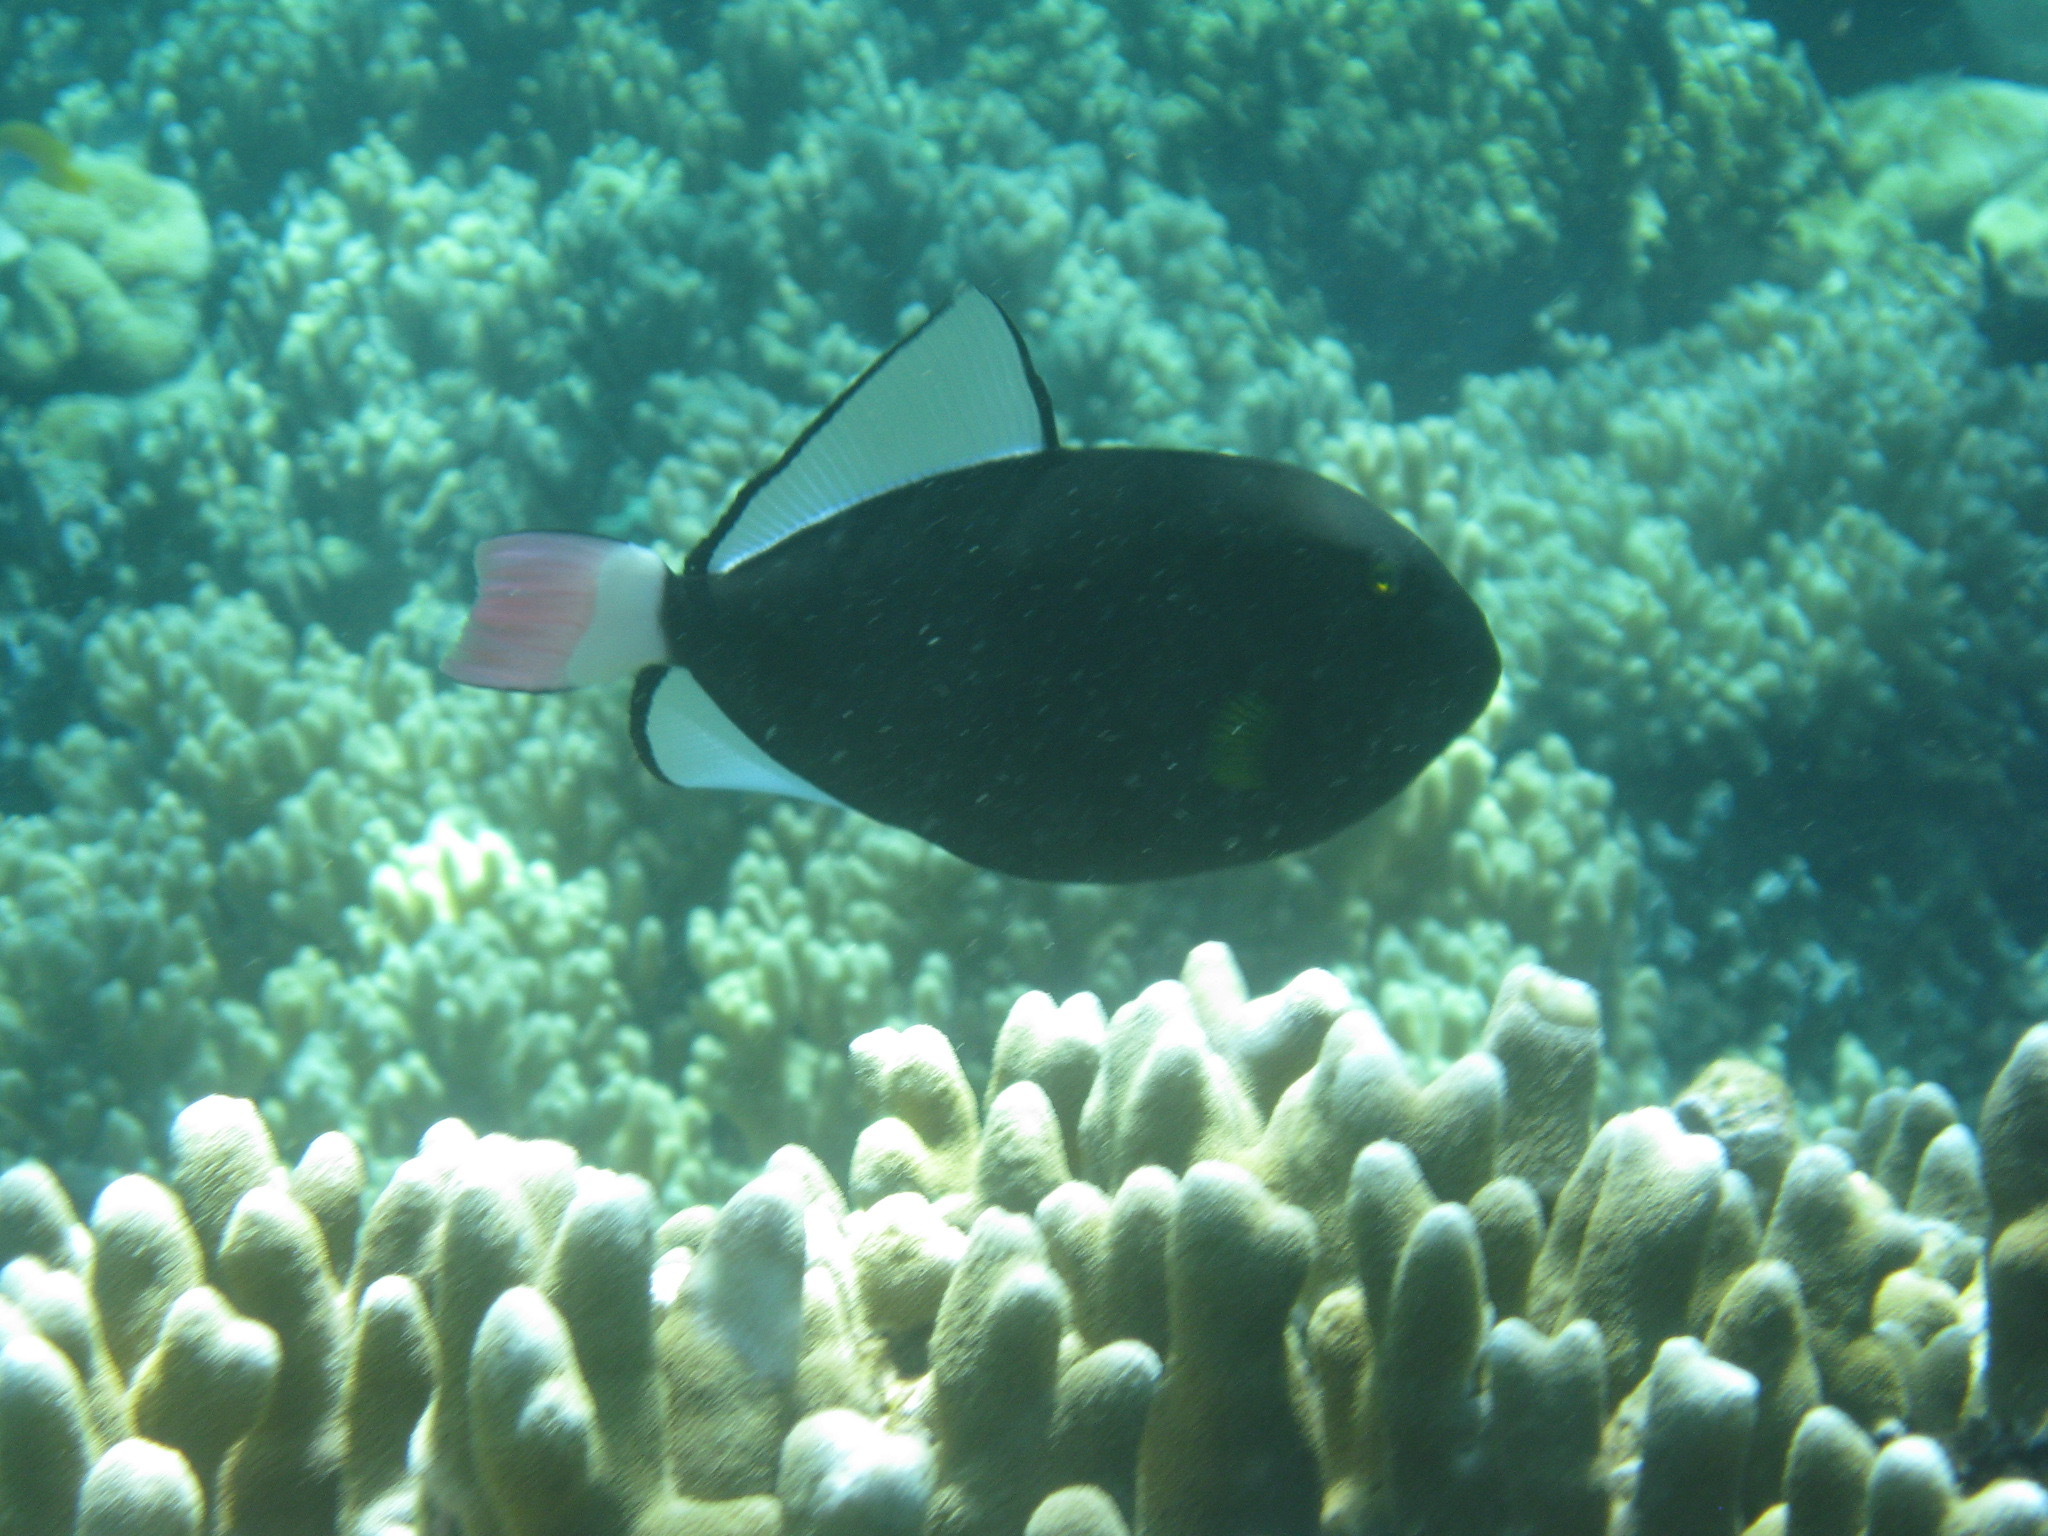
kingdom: Animalia
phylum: Chordata
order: Tetraodontiformes
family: Balistidae
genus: Melichthys
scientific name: Melichthys vidua
